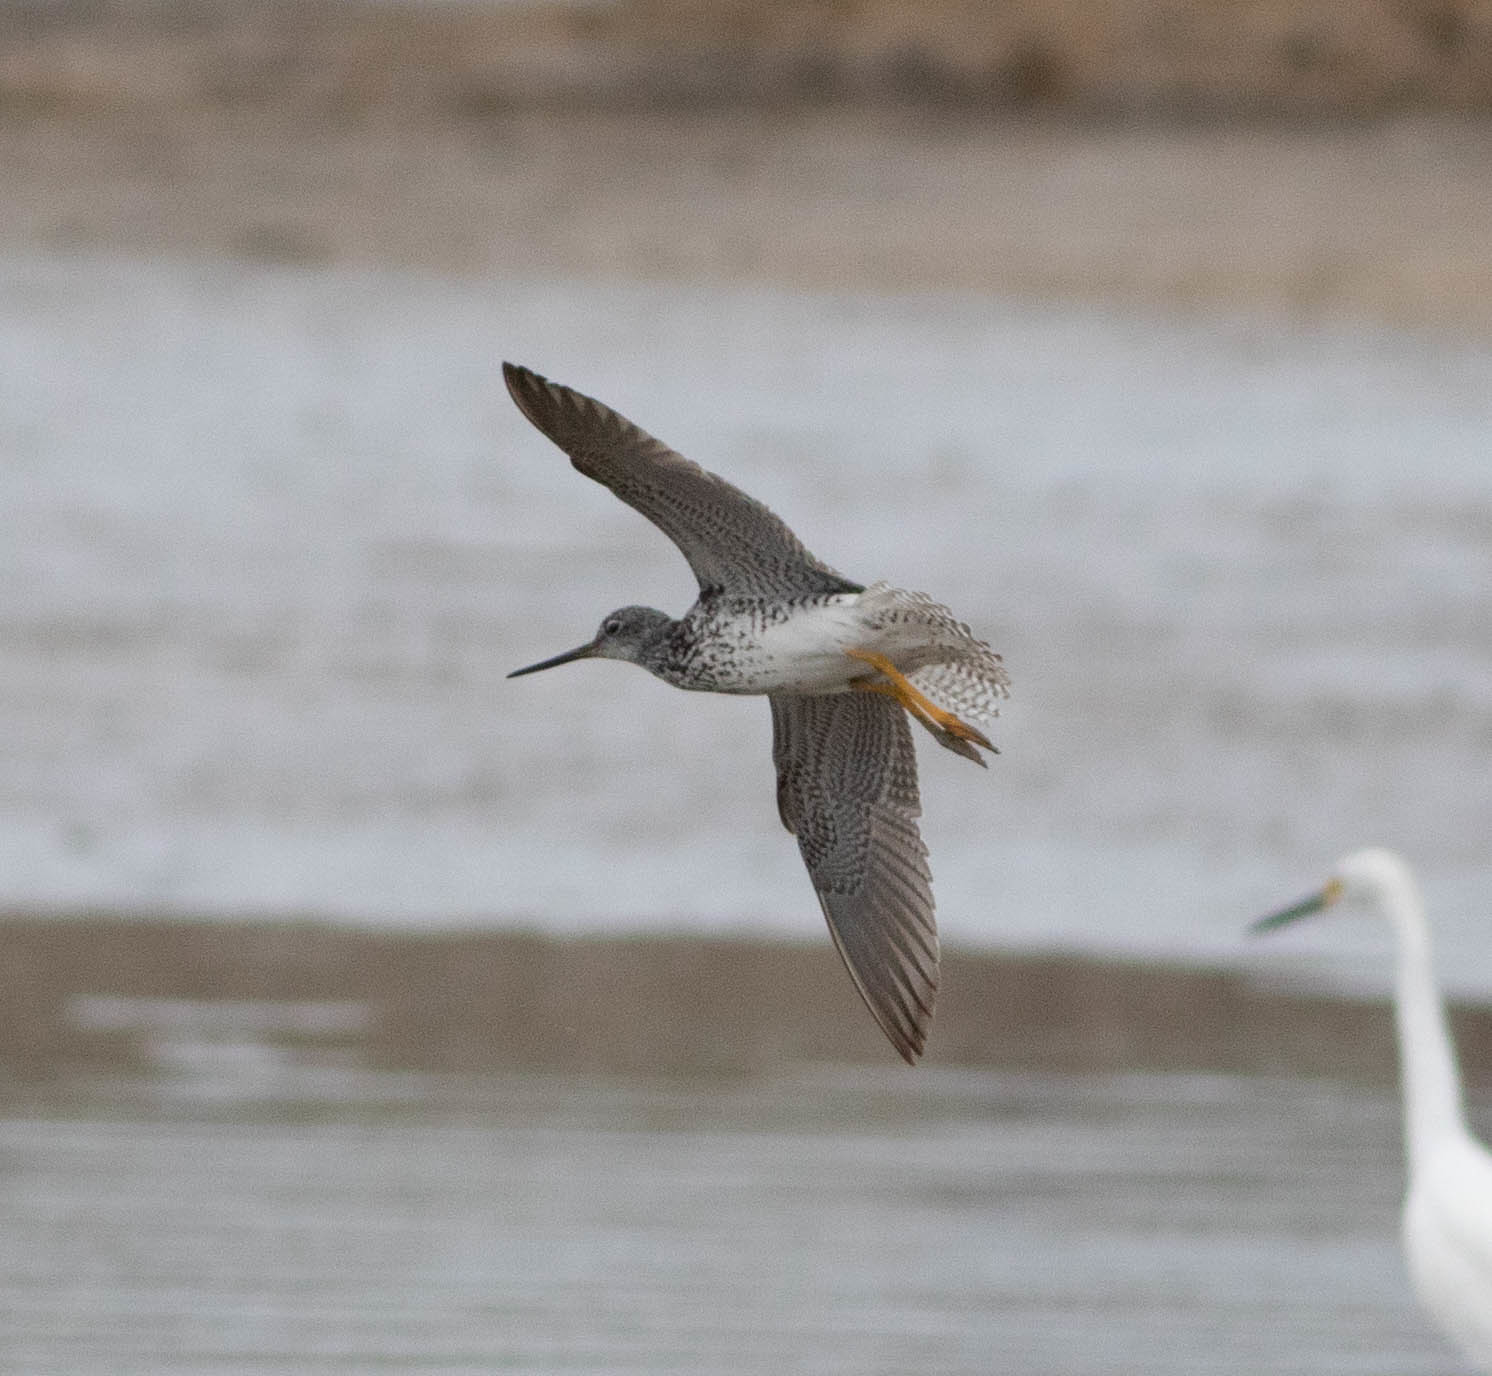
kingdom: Animalia
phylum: Chordata
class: Aves
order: Charadriiformes
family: Scolopacidae
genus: Tringa
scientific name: Tringa melanoleuca
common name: Greater yellowlegs
